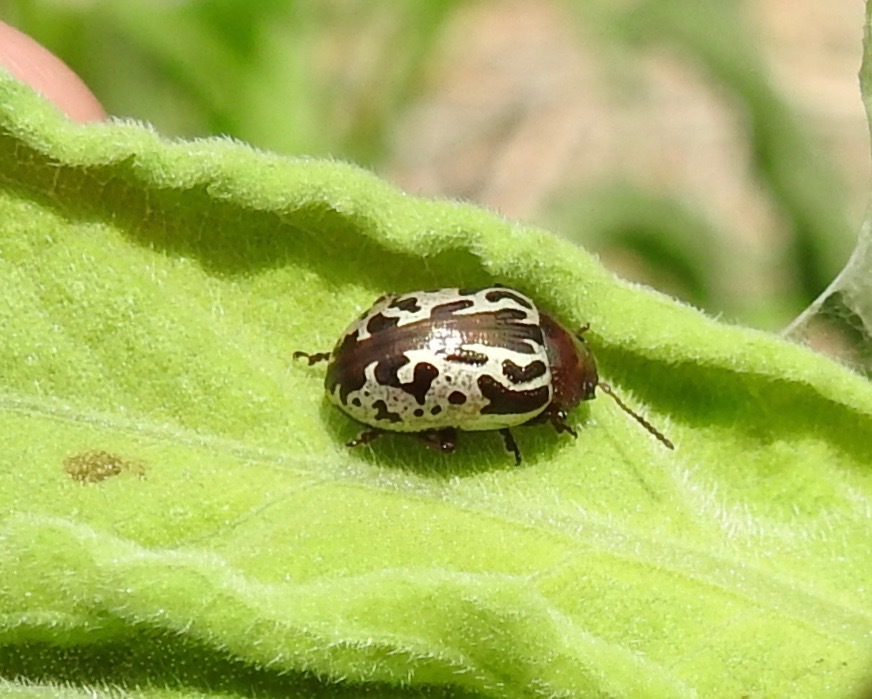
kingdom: Animalia
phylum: Arthropoda
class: Insecta
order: Coleoptera
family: Chrysomelidae
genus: Calligrapha
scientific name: Calligrapha
